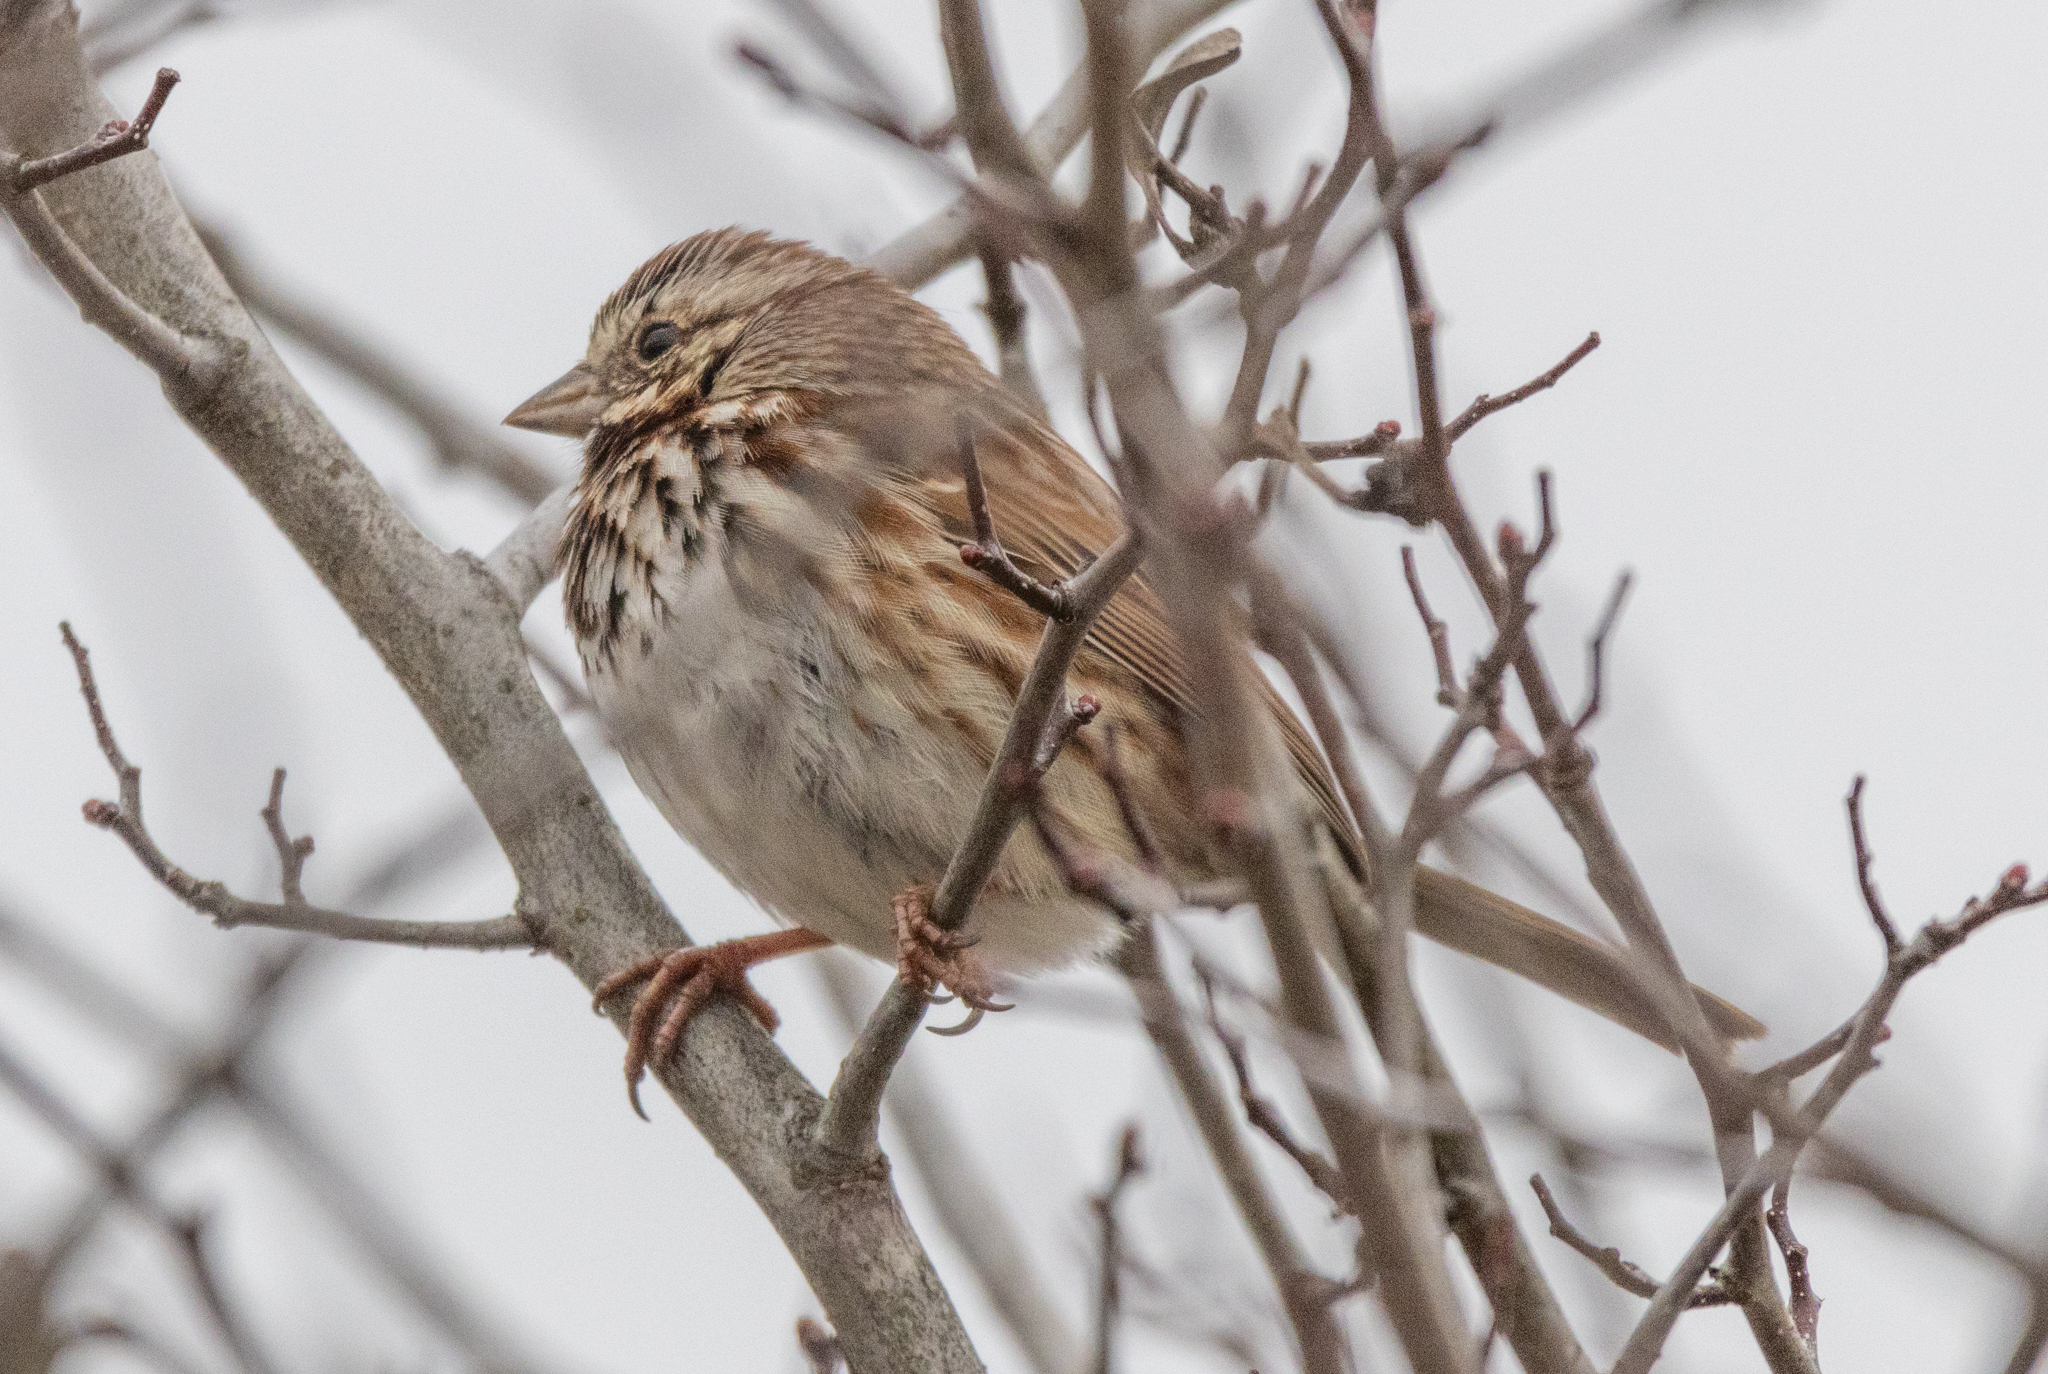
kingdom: Animalia
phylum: Chordata
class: Aves
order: Passeriformes
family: Passerellidae
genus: Melospiza
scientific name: Melospiza melodia
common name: Song sparrow
